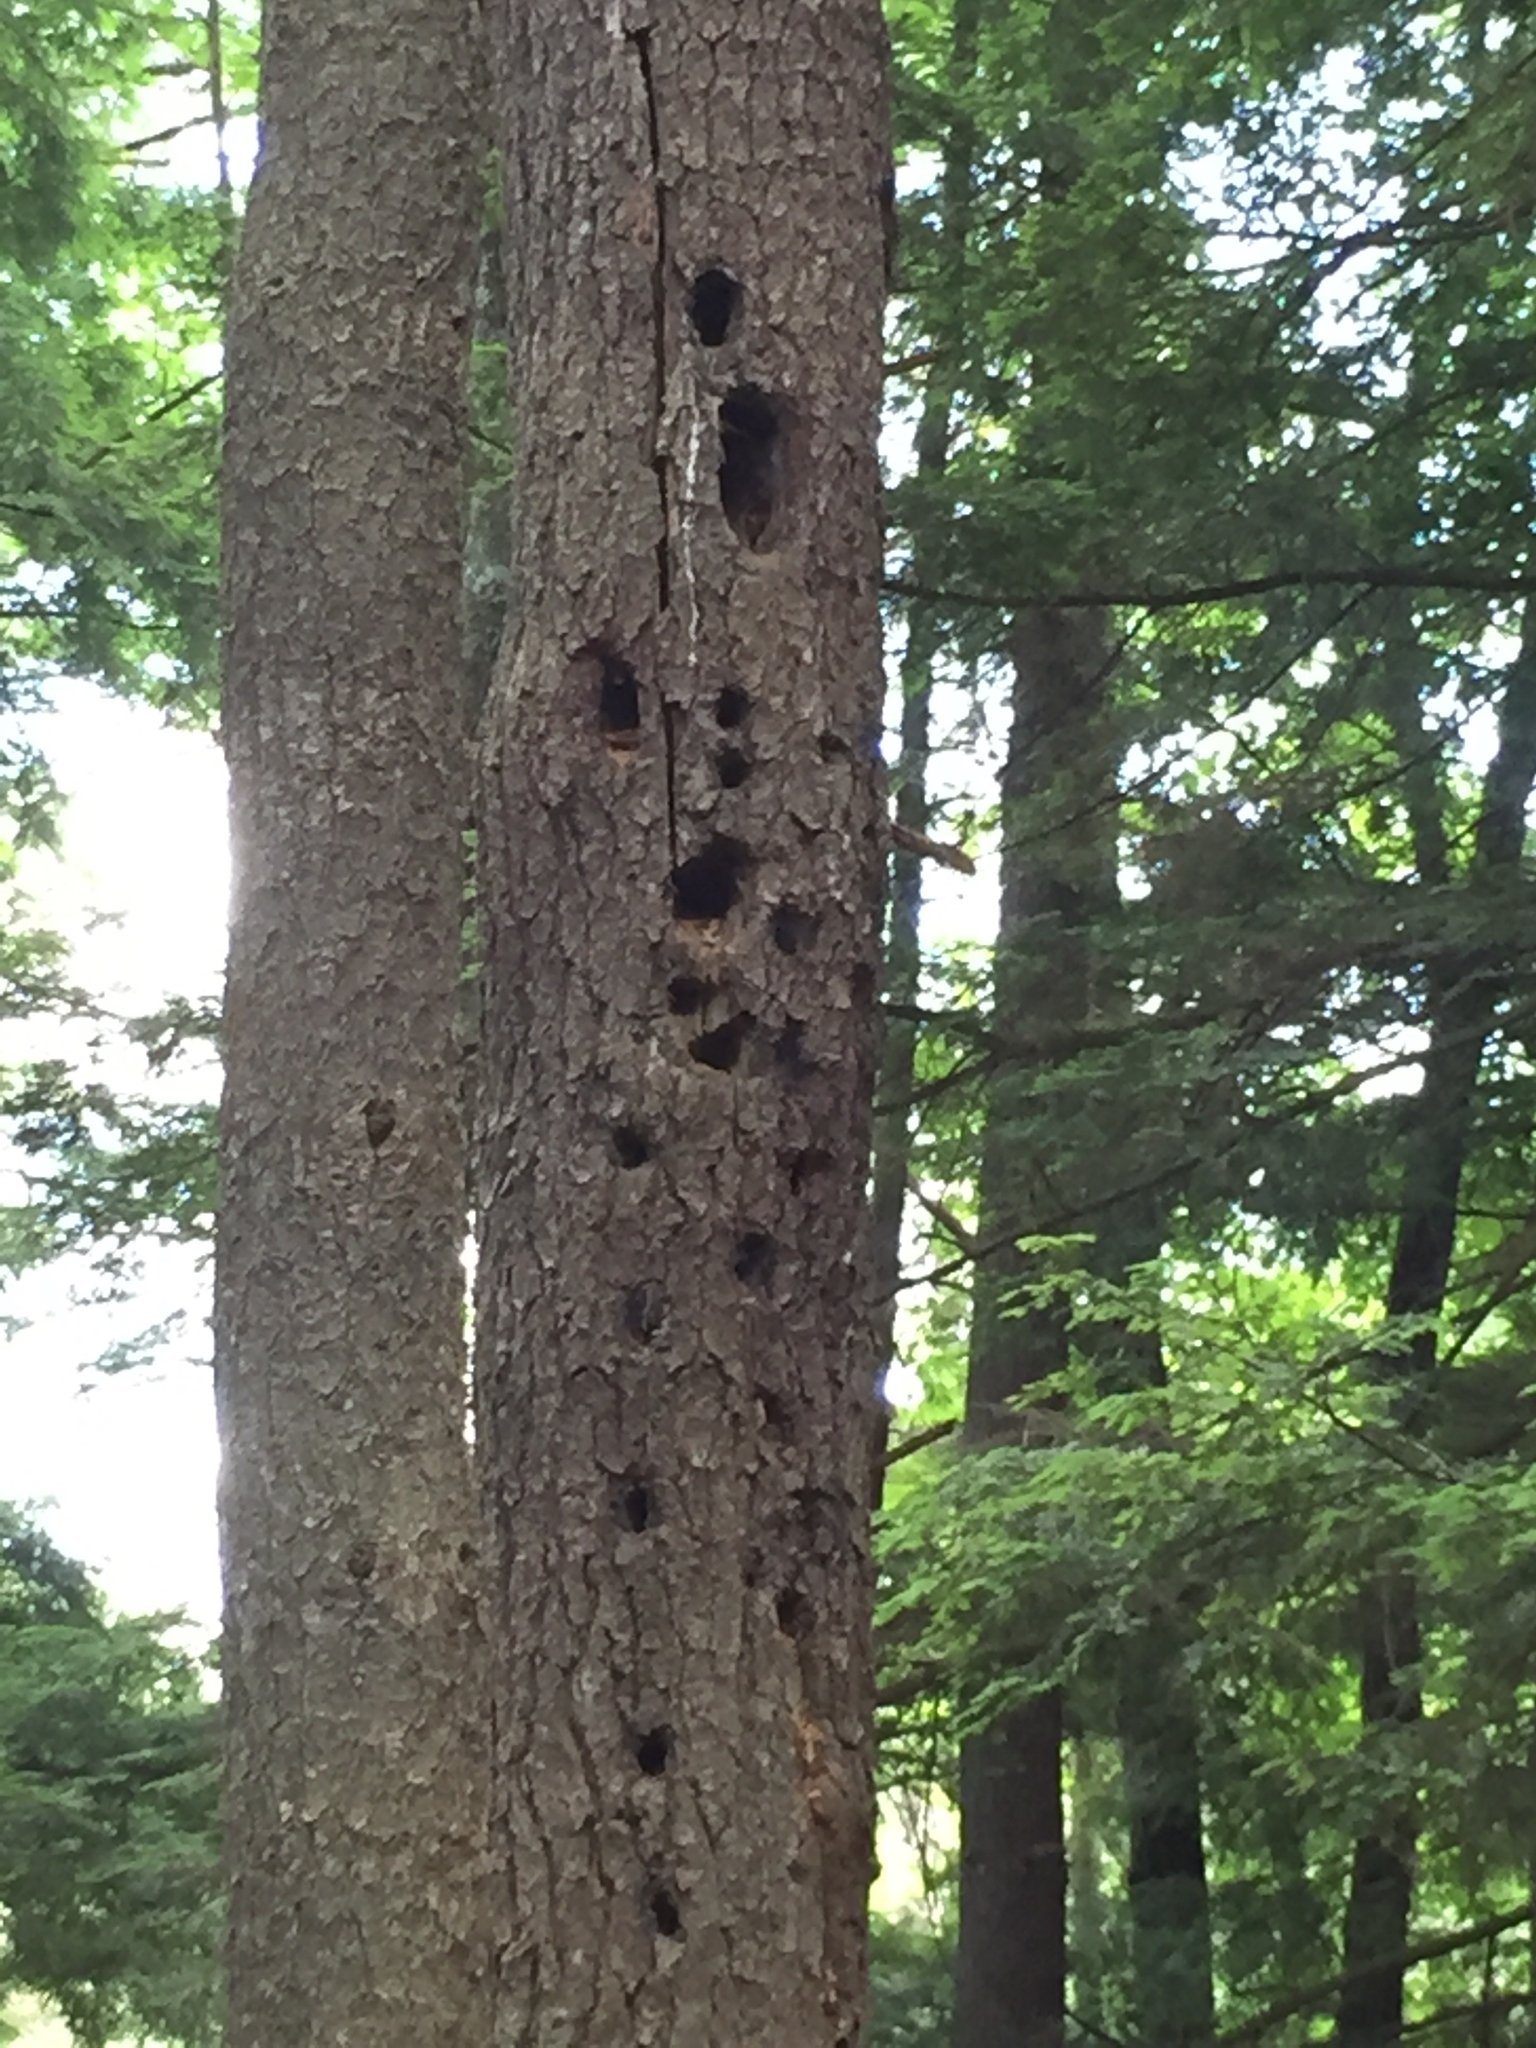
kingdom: Animalia
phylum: Chordata
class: Aves
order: Piciformes
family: Picidae
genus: Dryocopus
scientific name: Dryocopus pileatus
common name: Pileated woodpecker
